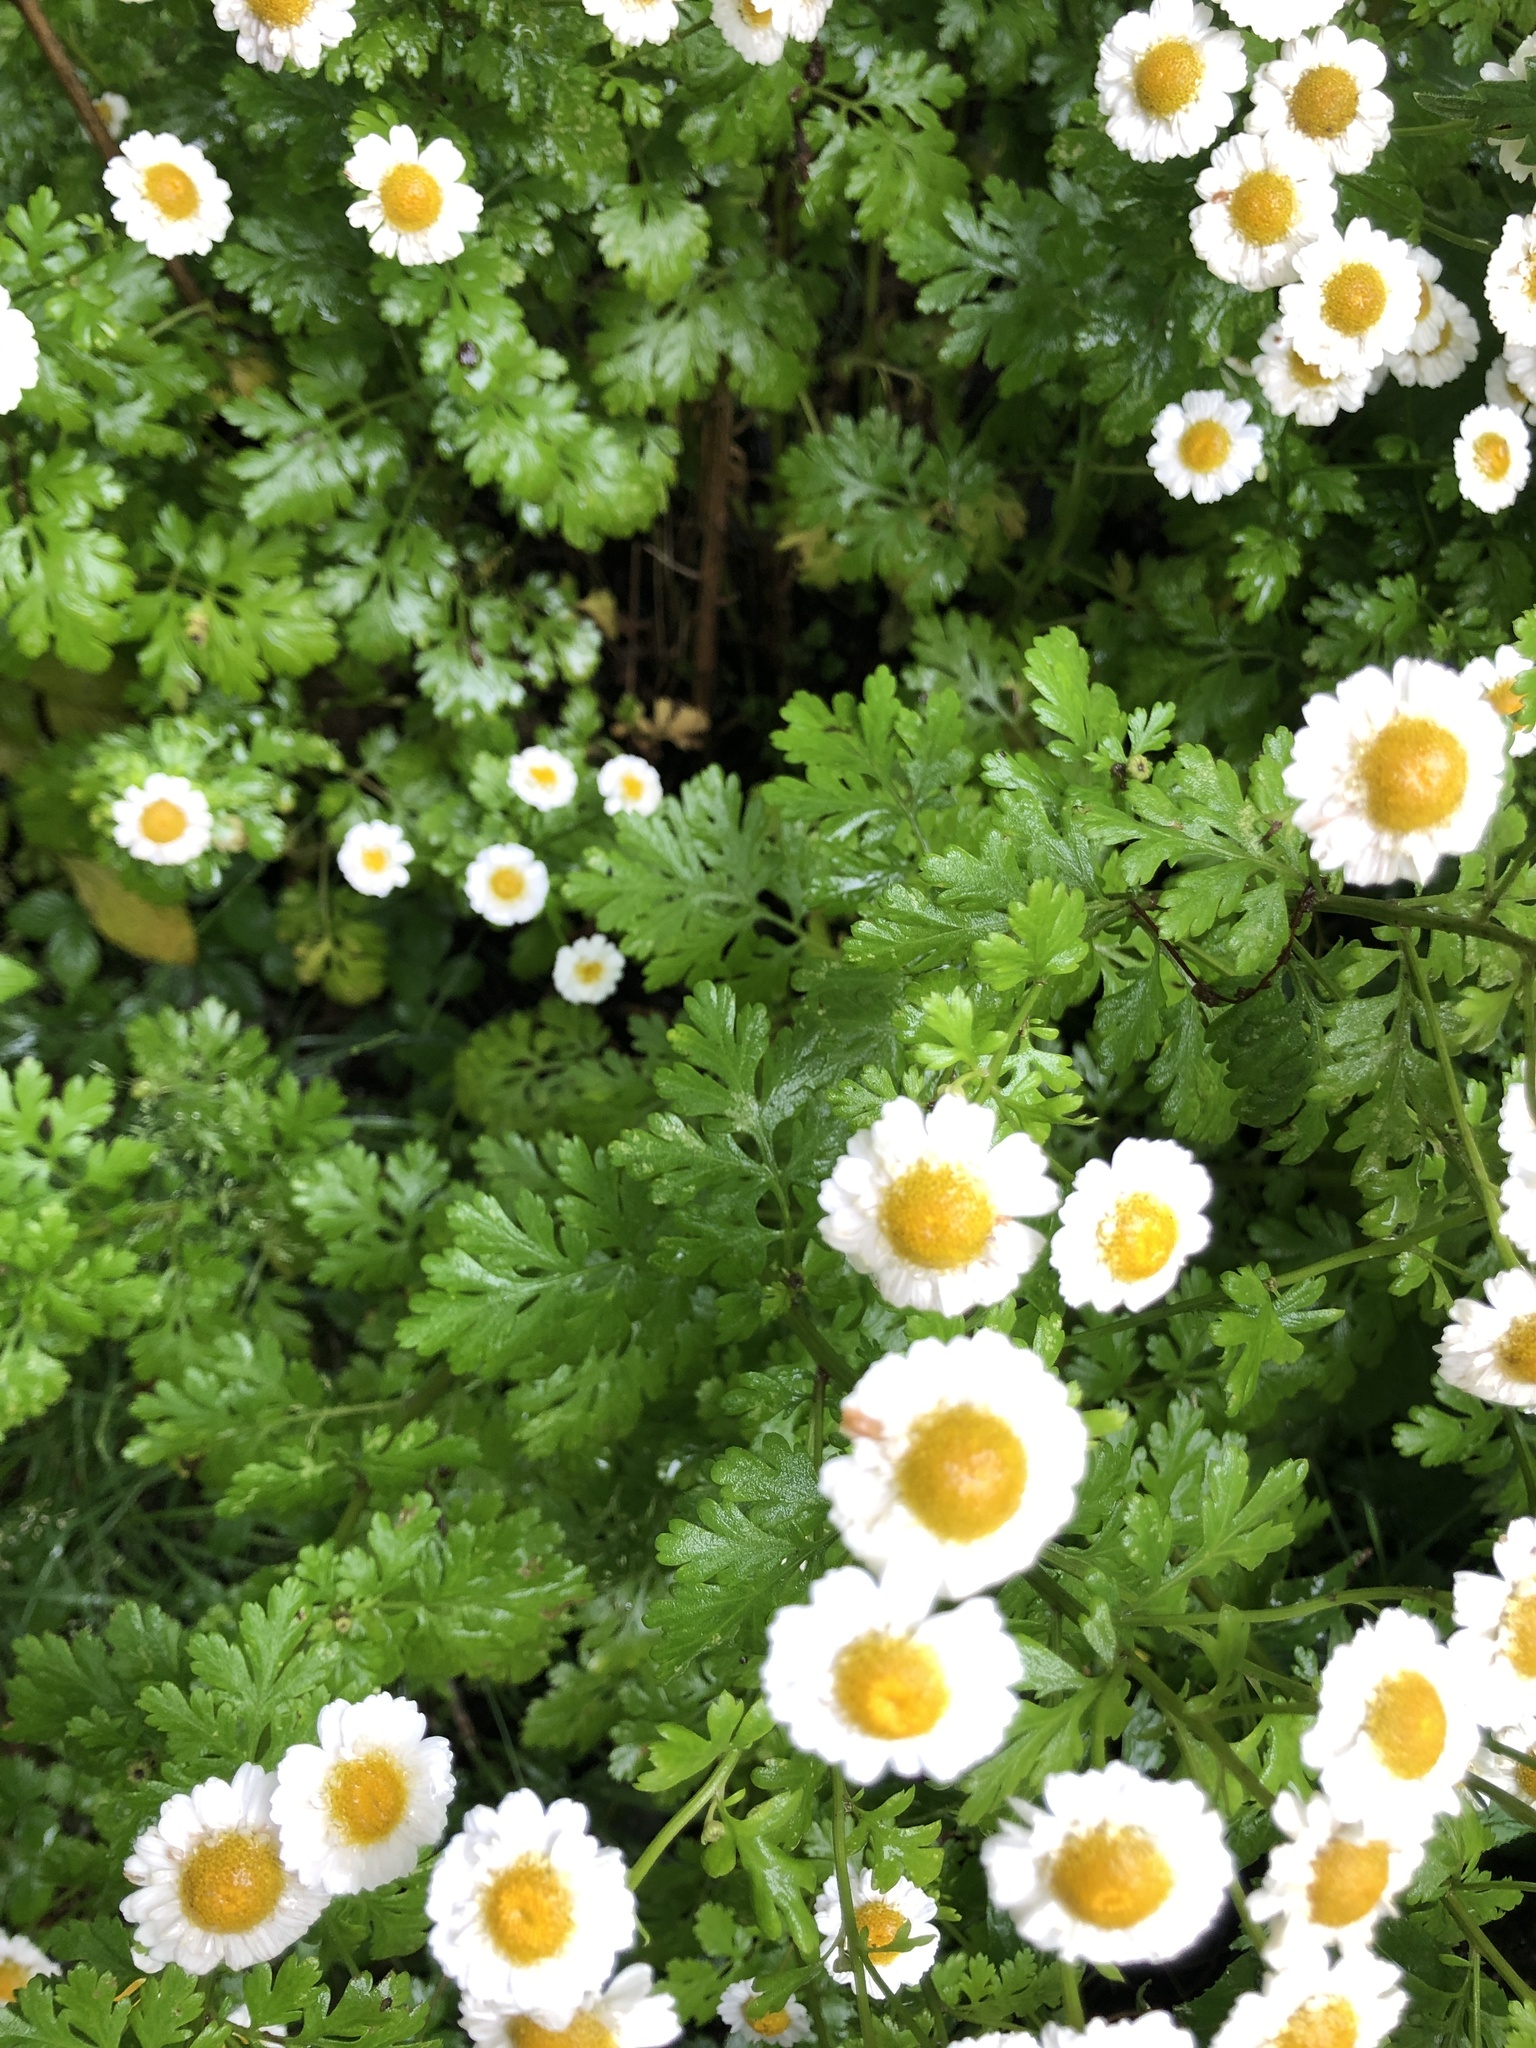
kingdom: Plantae
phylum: Tracheophyta
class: Magnoliopsida
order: Asterales
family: Asteraceae
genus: Tanacetum
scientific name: Tanacetum parthenium
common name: Feverfew
